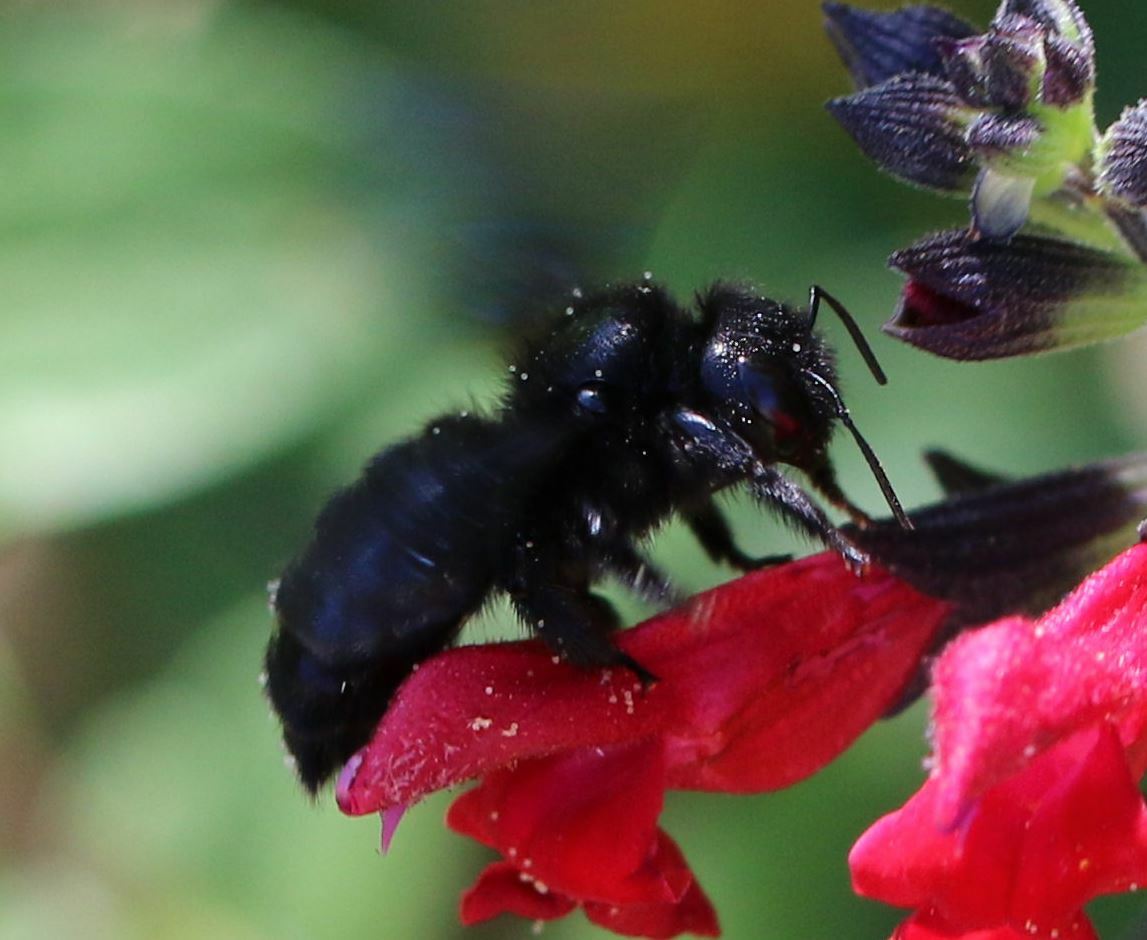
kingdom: Animalia
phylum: Arthropoda
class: Insecta
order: Hymenoptera
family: Apidae
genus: Xylocopa
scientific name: Xylocopa iris
